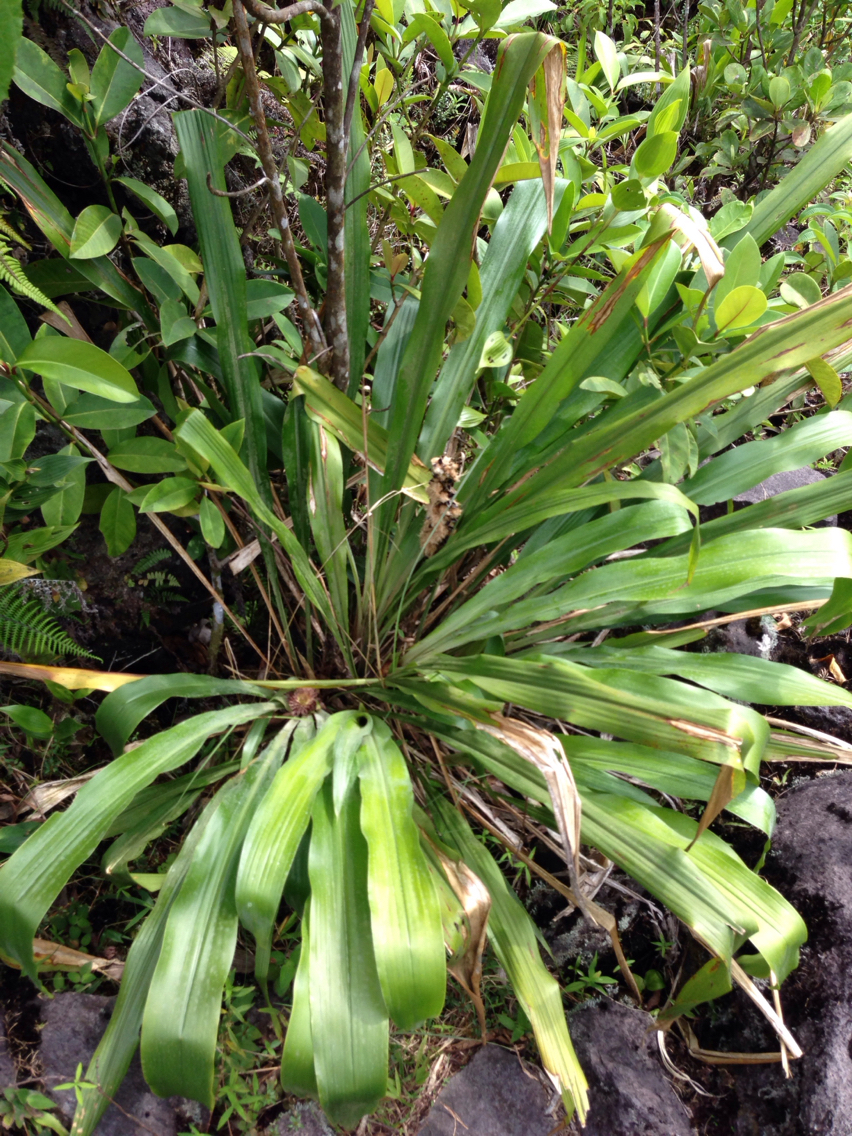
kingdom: Plantae
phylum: Tracheophyta
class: Liliopsida
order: Poales
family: Bromeliaceae
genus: Pitcairnia
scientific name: Pitcairnia funkiae
